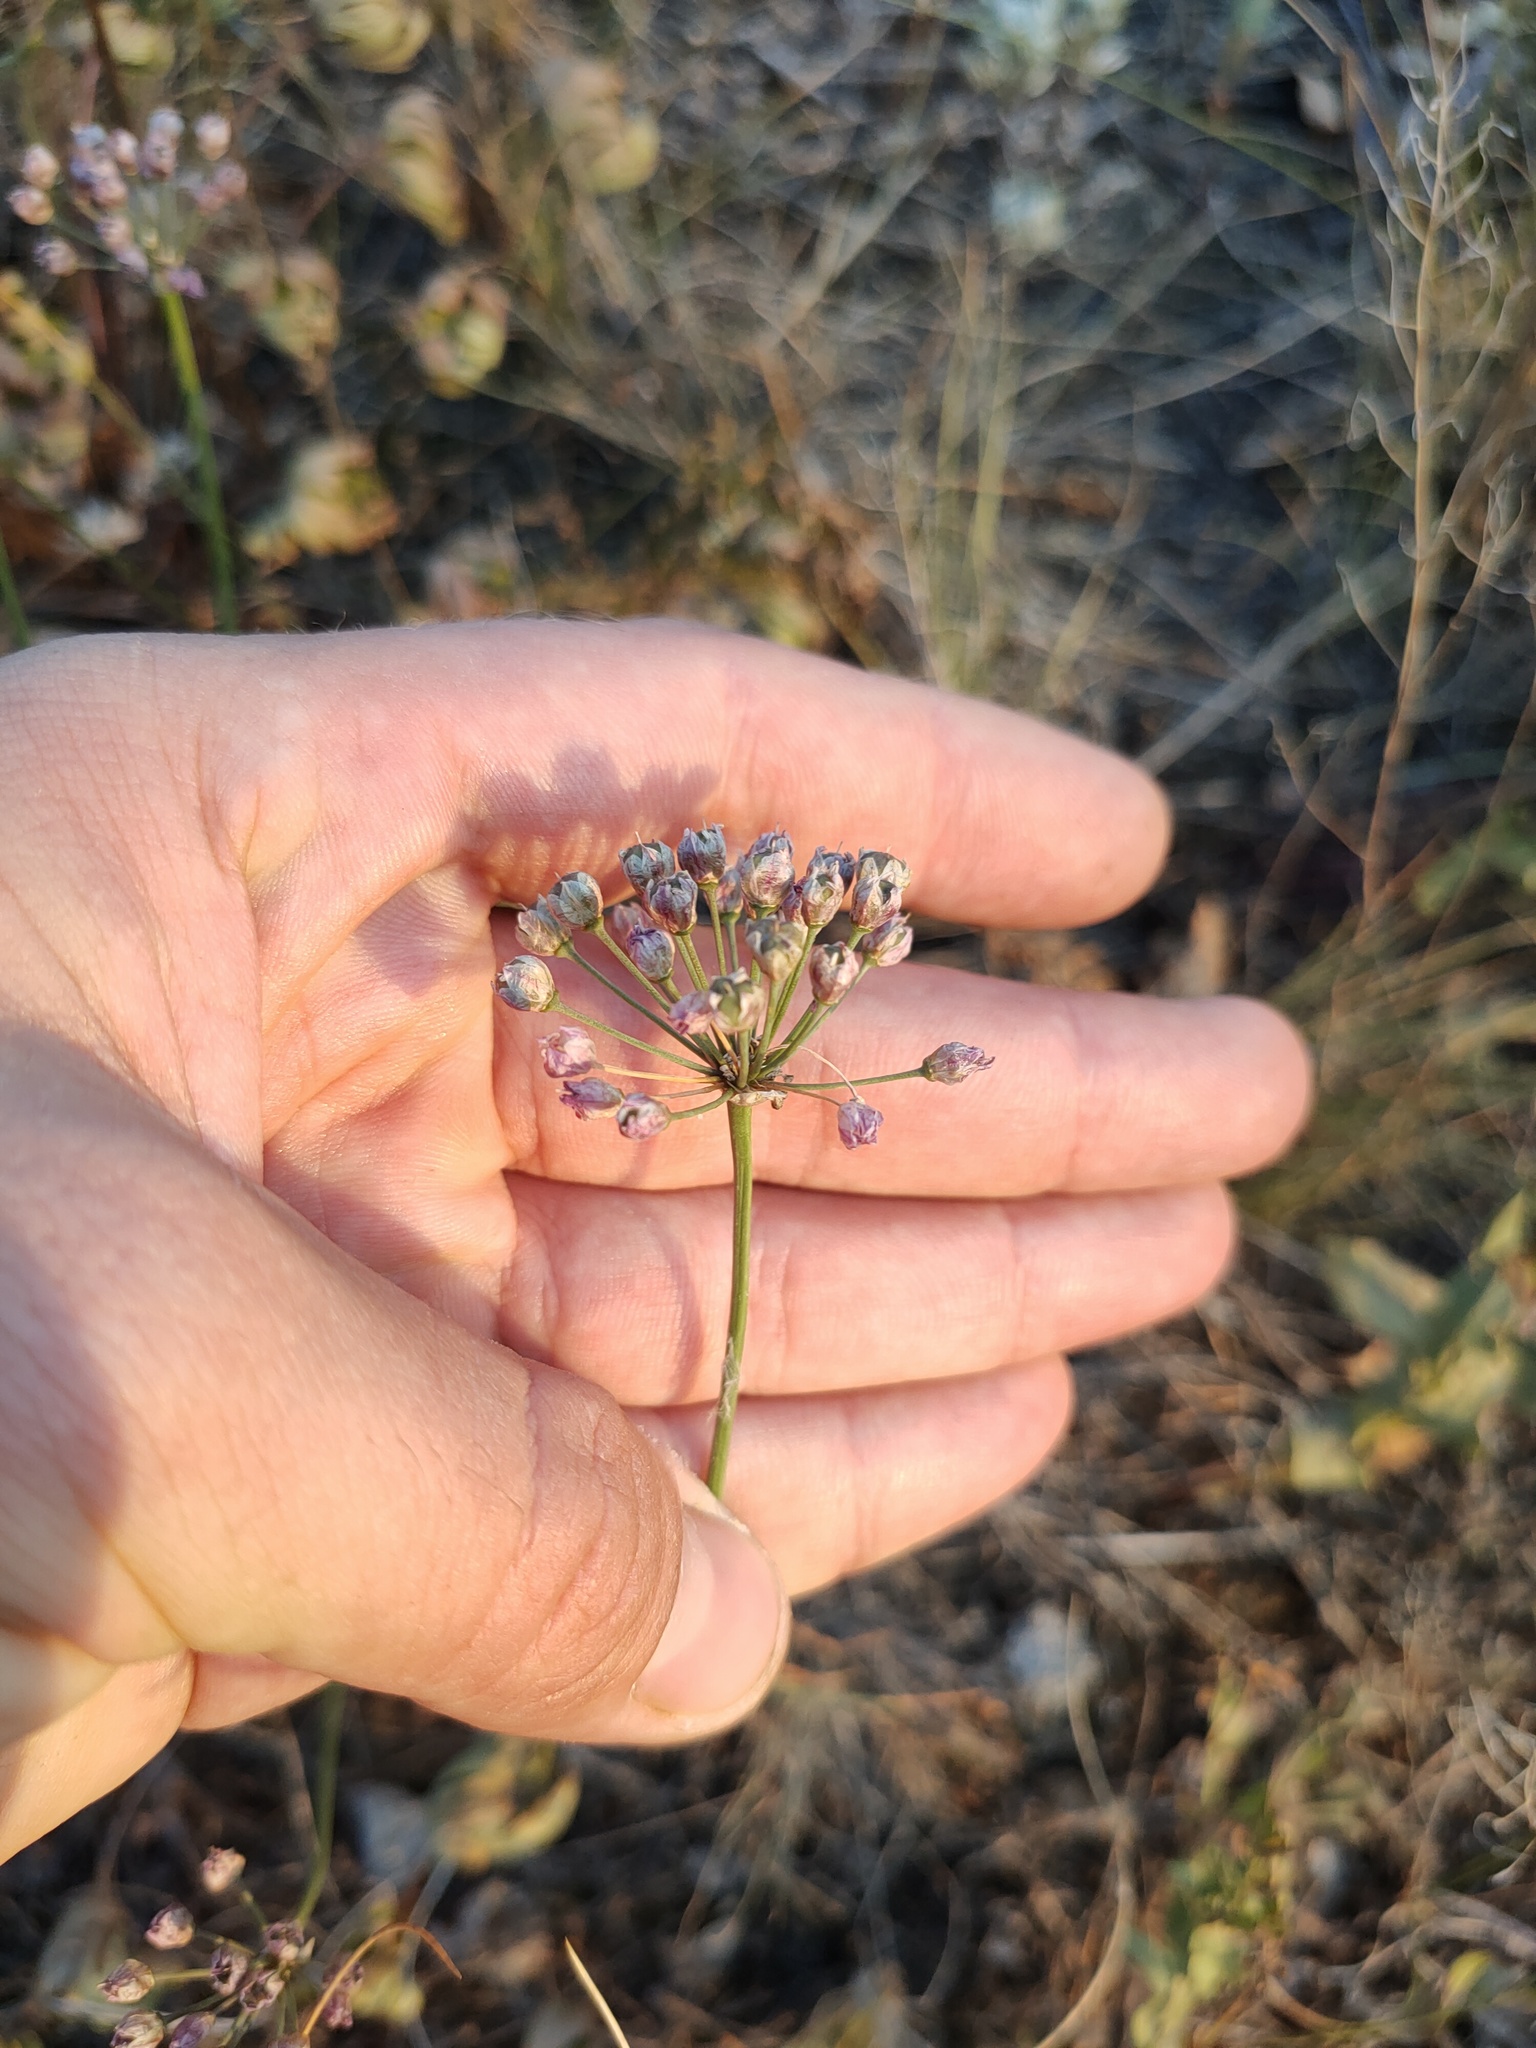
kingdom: Plantae
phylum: Tracheophyta
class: Liliopsida
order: Asparagales
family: Amaryllidaceae
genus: Allium
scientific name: Allium rubens
